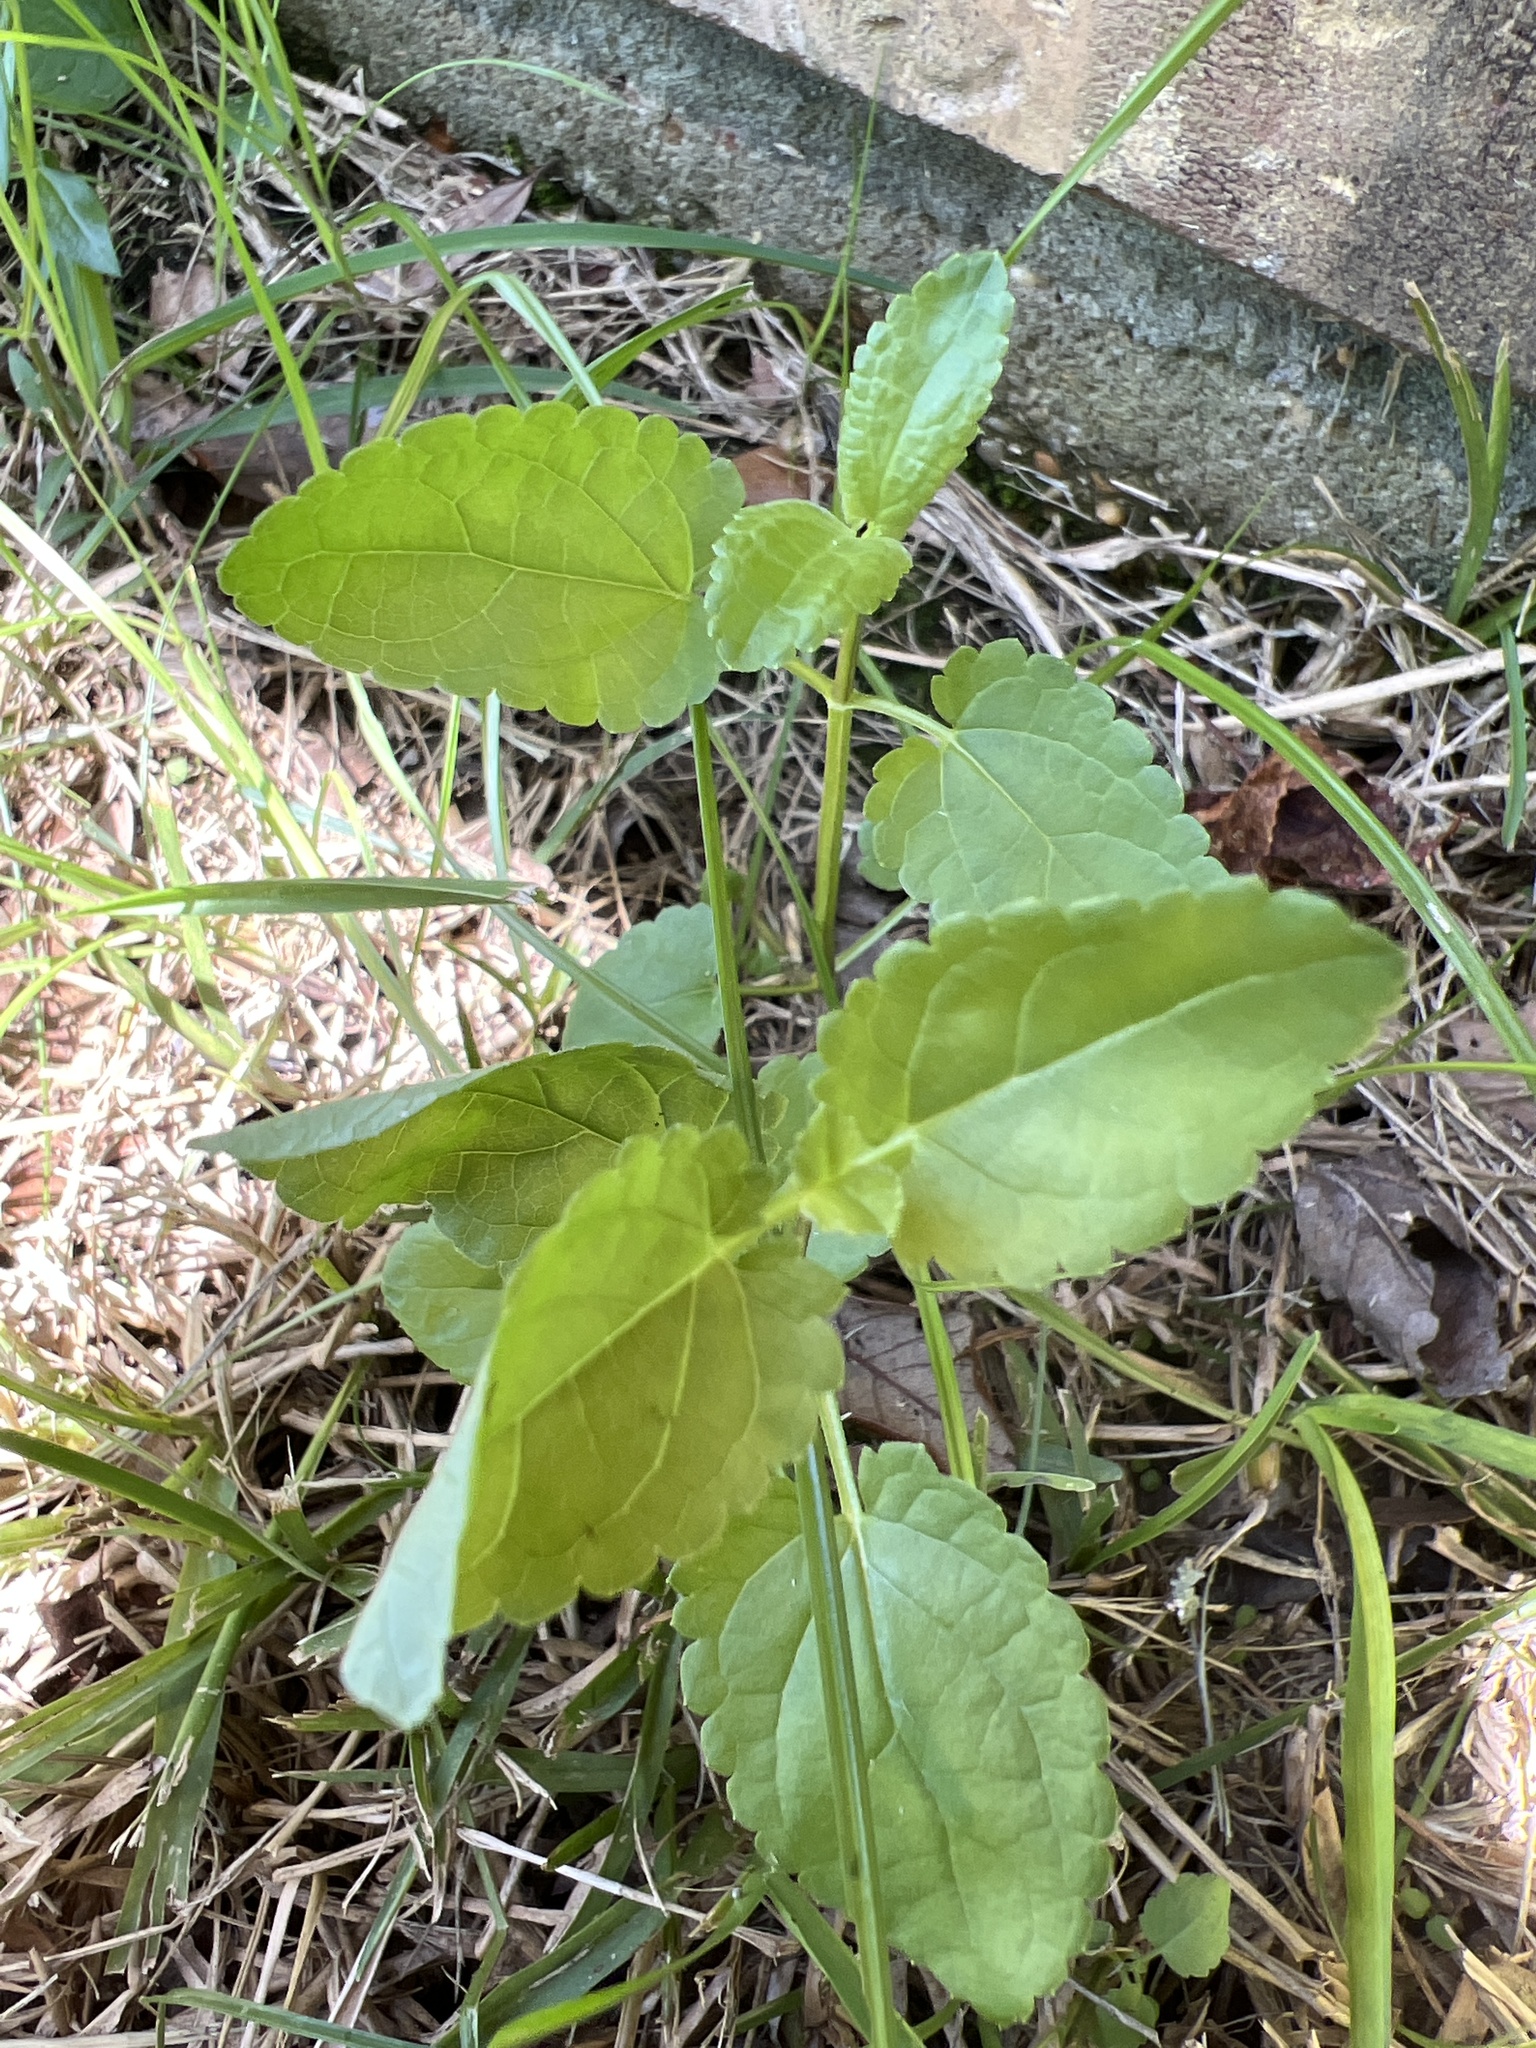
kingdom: Plantae
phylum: Tracheophyta
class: Magnoliopsida
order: Lamiales
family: Lamiaceae
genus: Stachys
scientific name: Stachys floridana
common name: Florida betony
